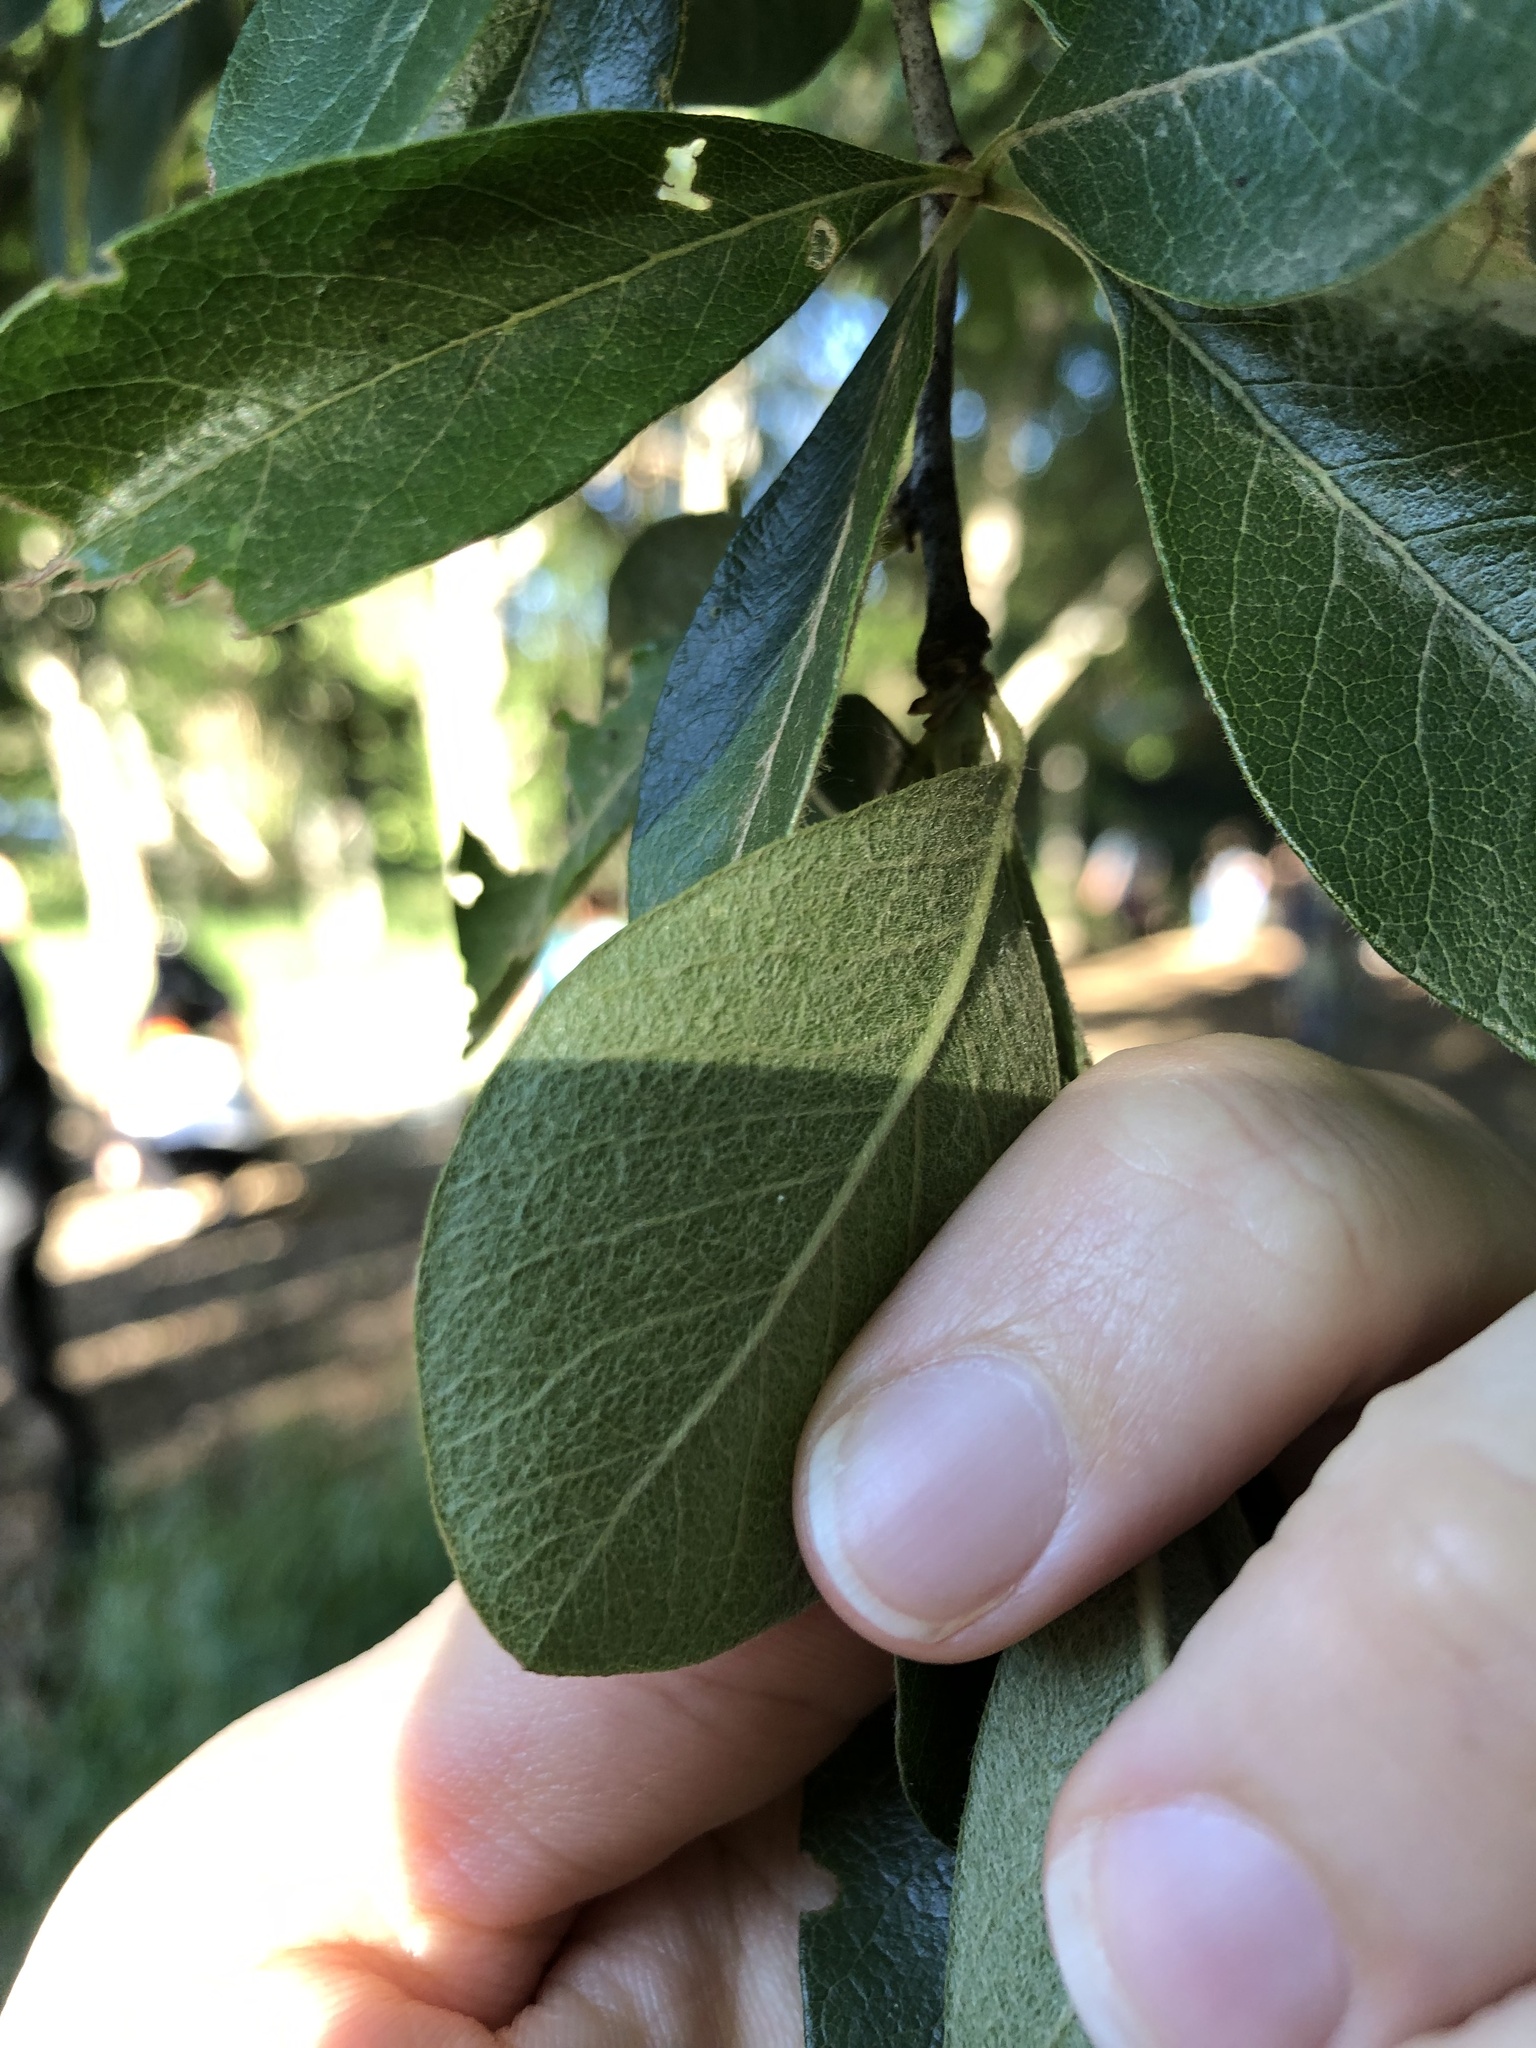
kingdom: Plantae
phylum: Tracheophyta
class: Magnoliopsida
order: Ericales
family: Sapotaceae
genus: Sideroxylon
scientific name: Sideroxylon lanuginosum
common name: Chittamwood
